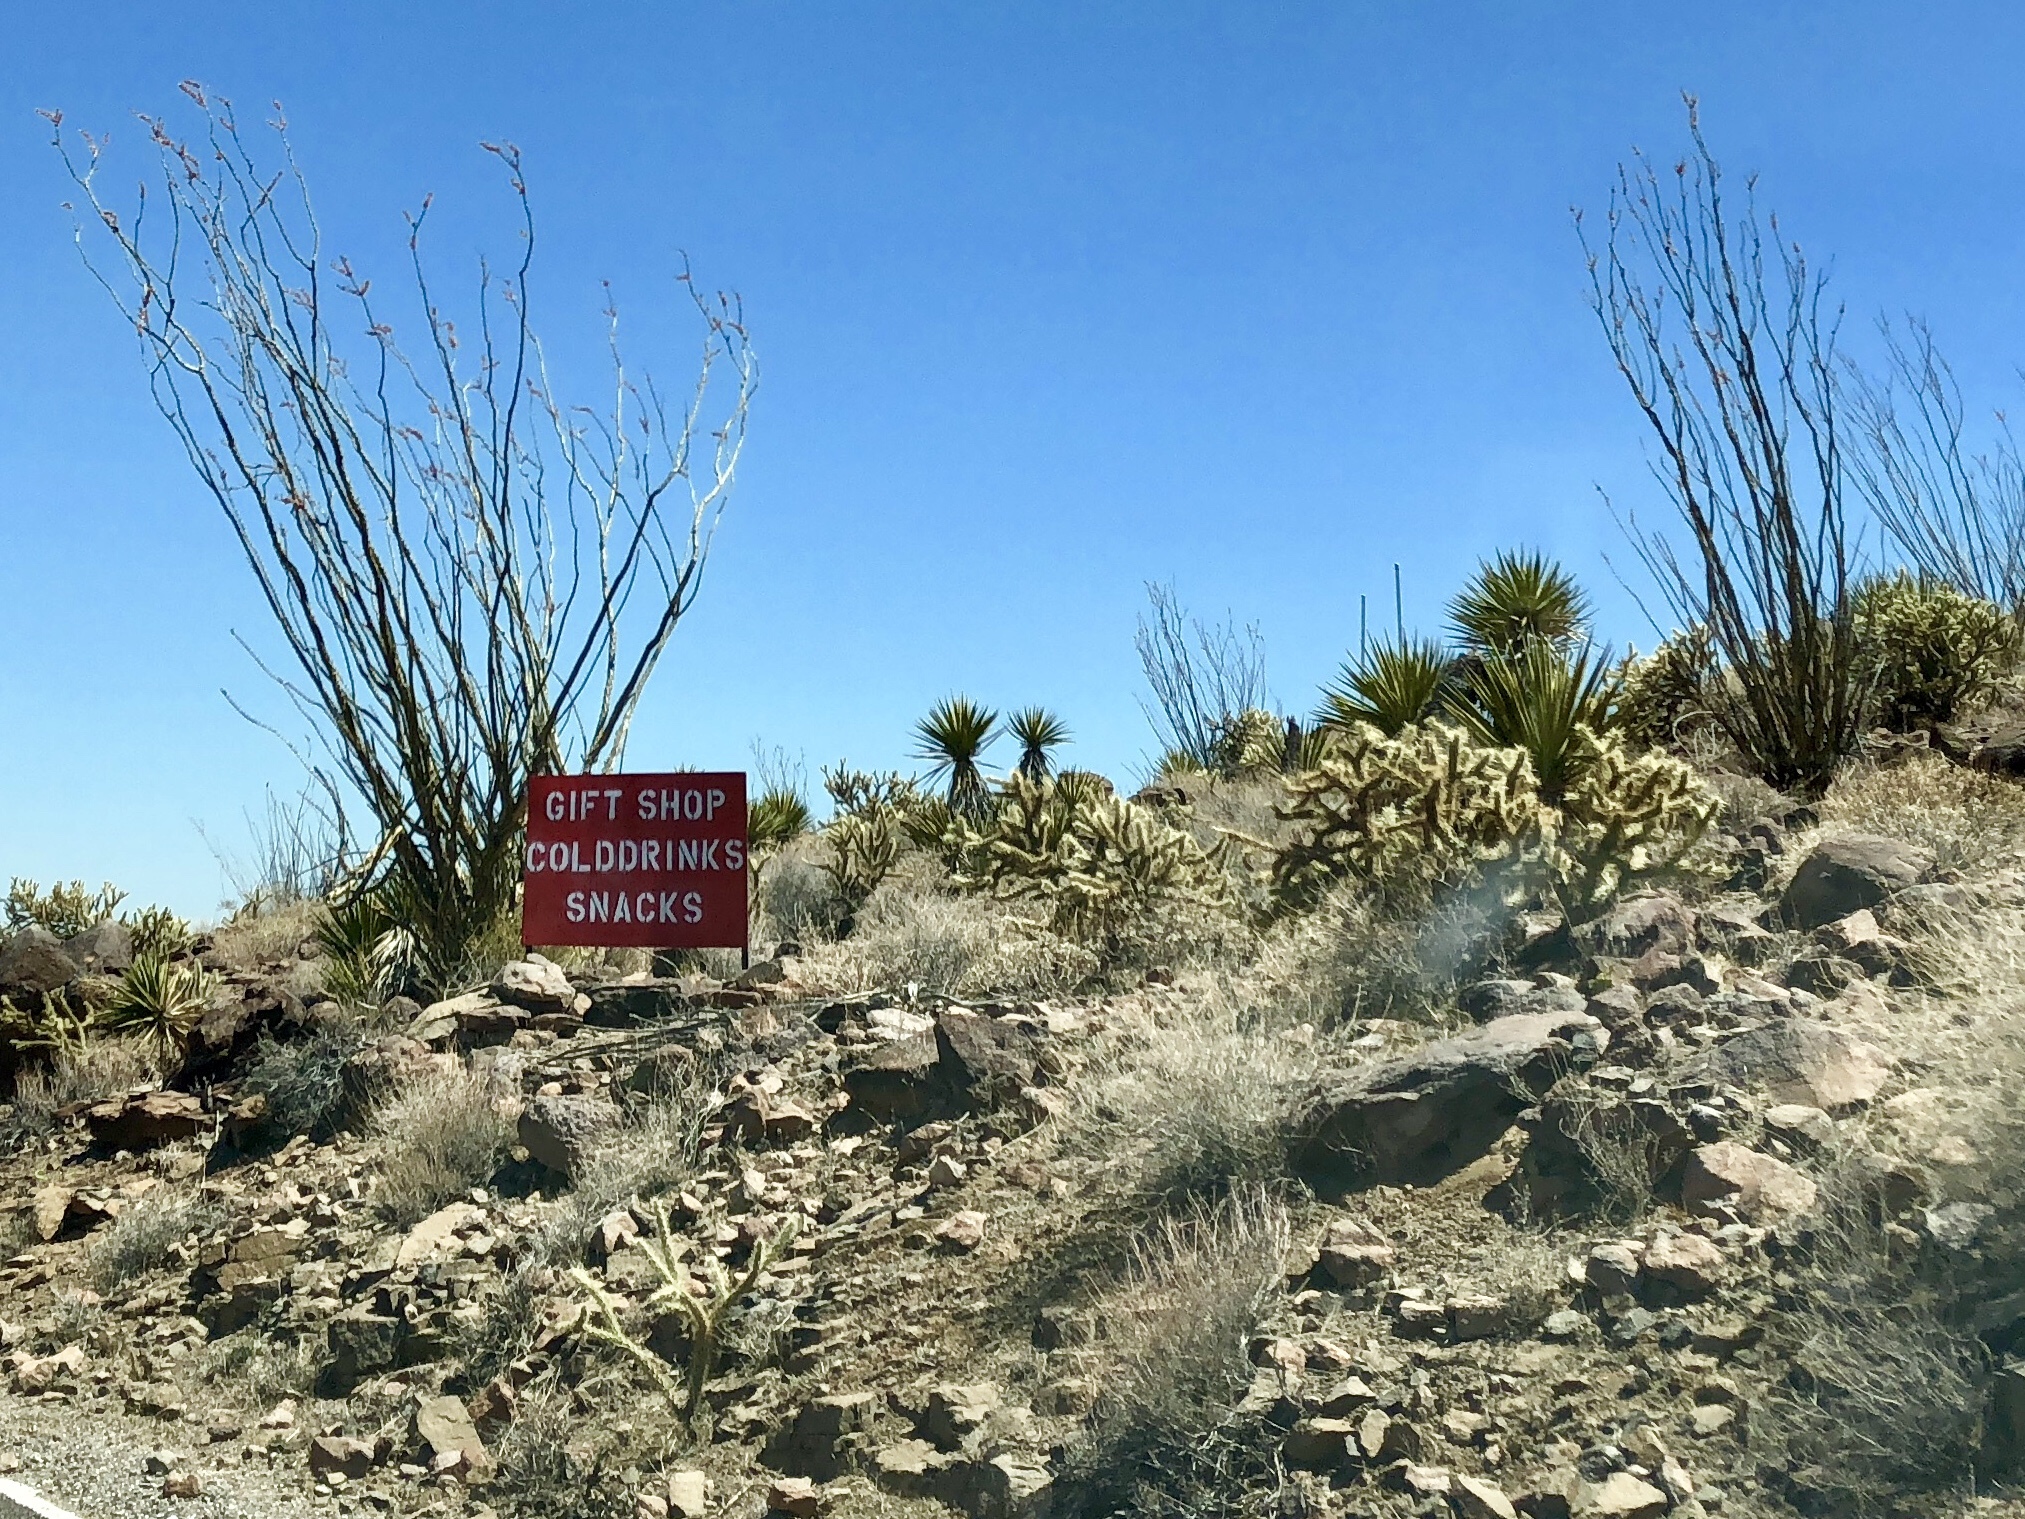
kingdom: Plantae
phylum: Tracheophyta
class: Magnoliopsida
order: Ericales
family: Fouquieriaceae
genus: Fouquieria
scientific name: Fouquieria splendens
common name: Vine-cactus
